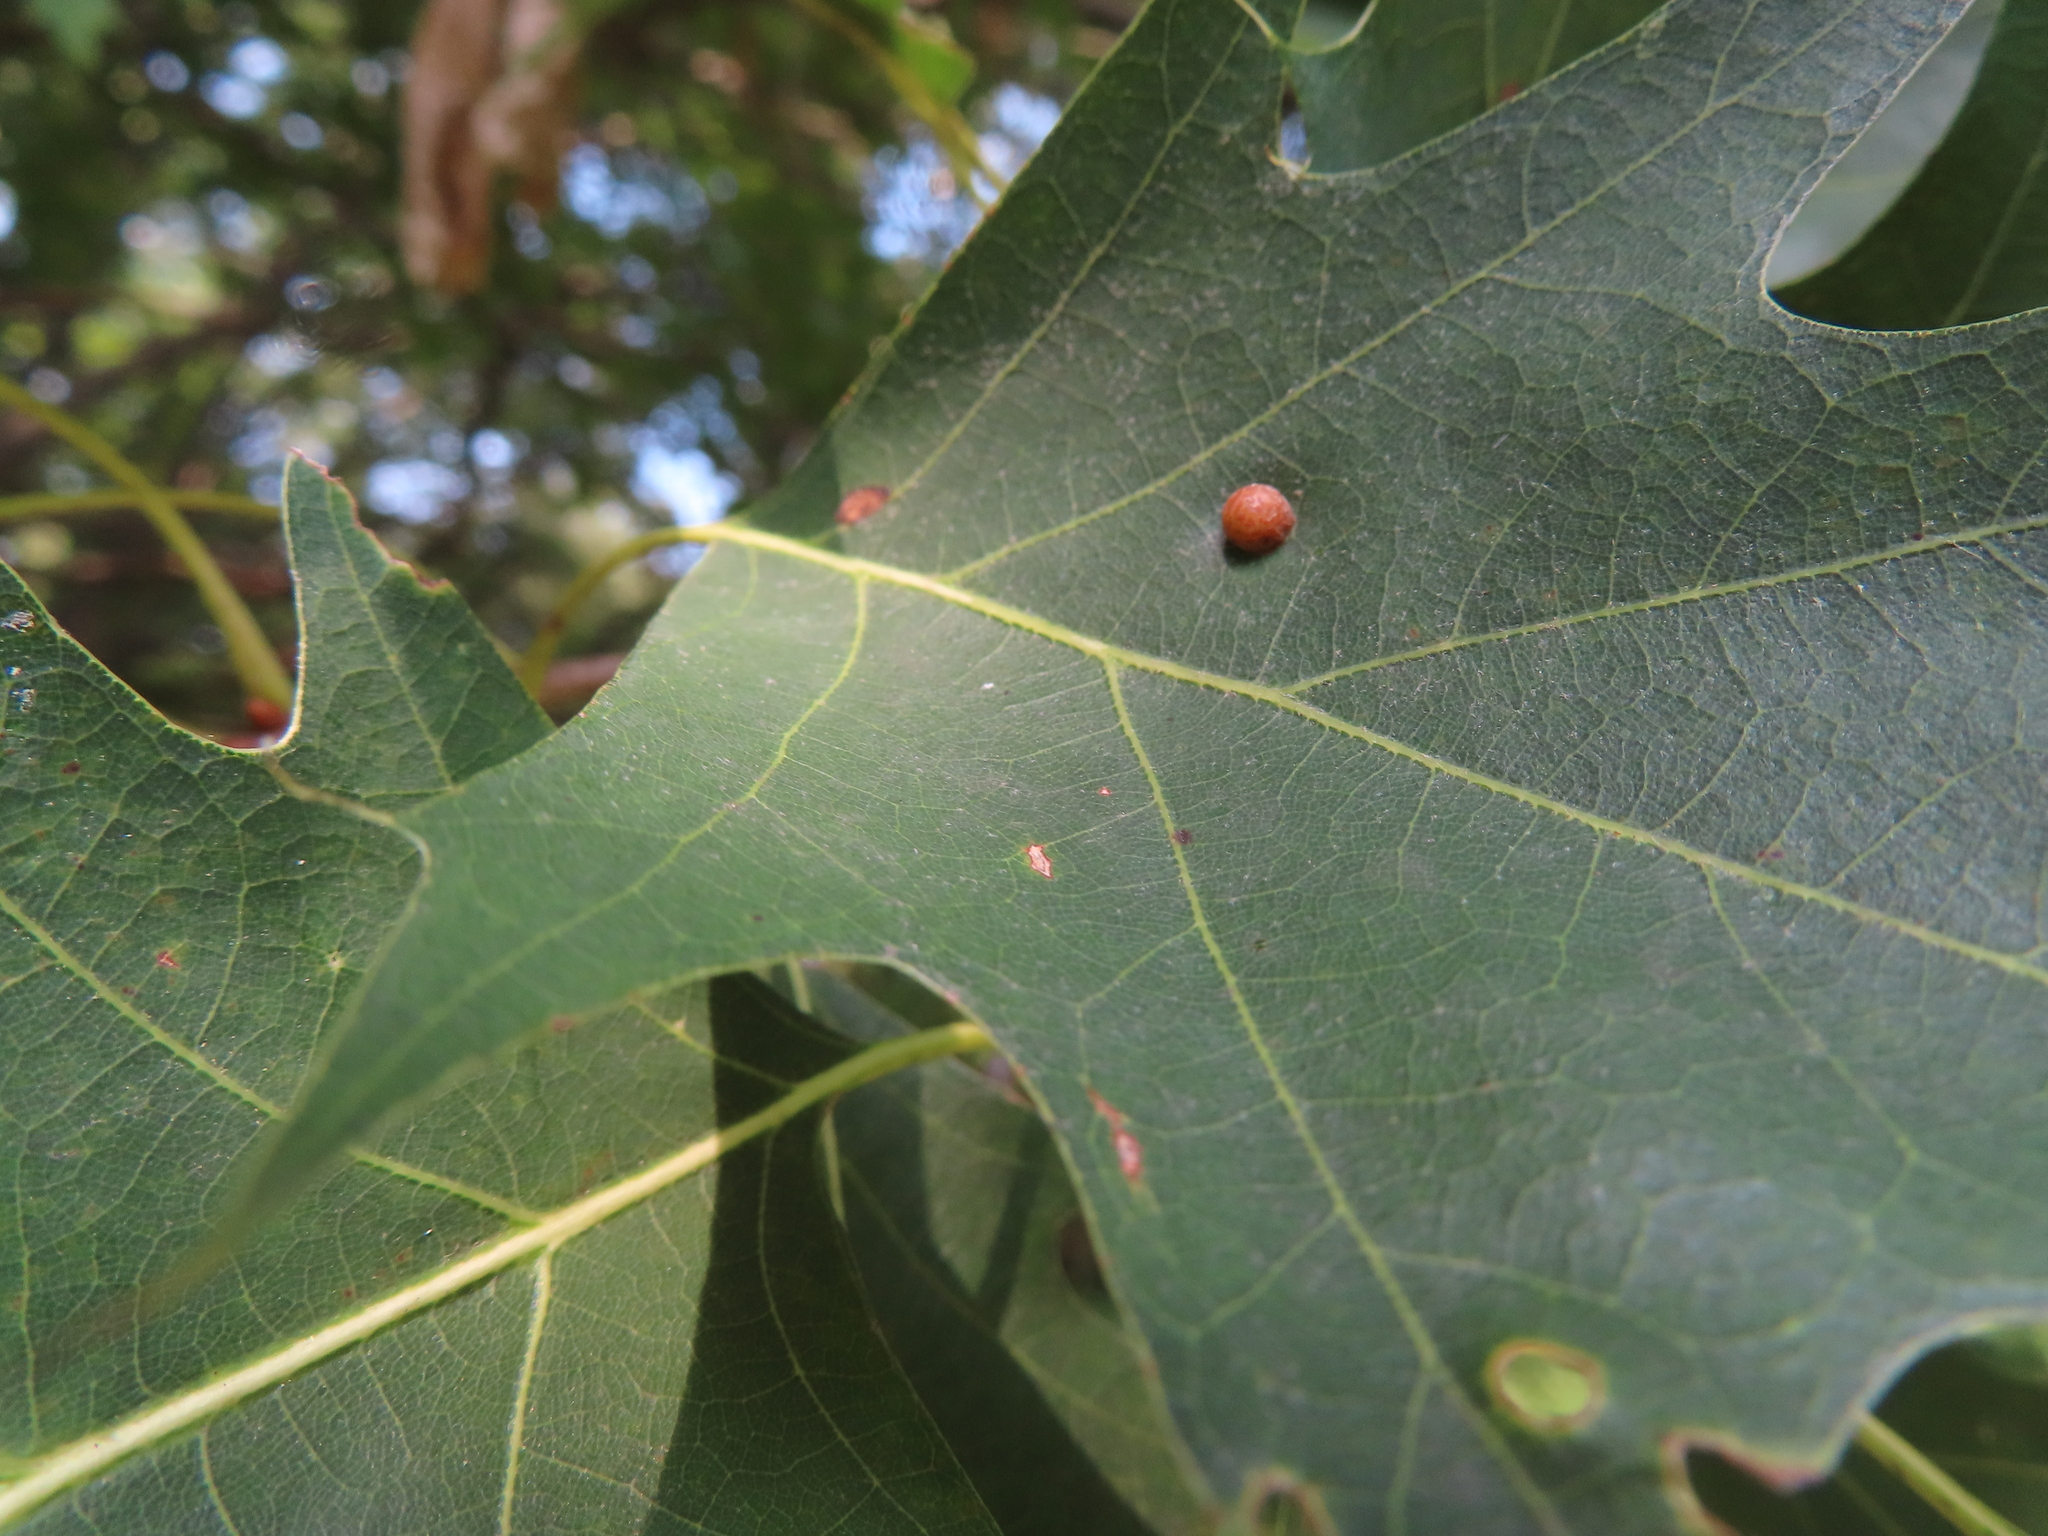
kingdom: Animalia
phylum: Arthropoda
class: Insecta
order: Diptera
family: Cecidomyiidae
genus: Polystepha
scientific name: Polystepha pilulae
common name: Oak leaf gall midge
